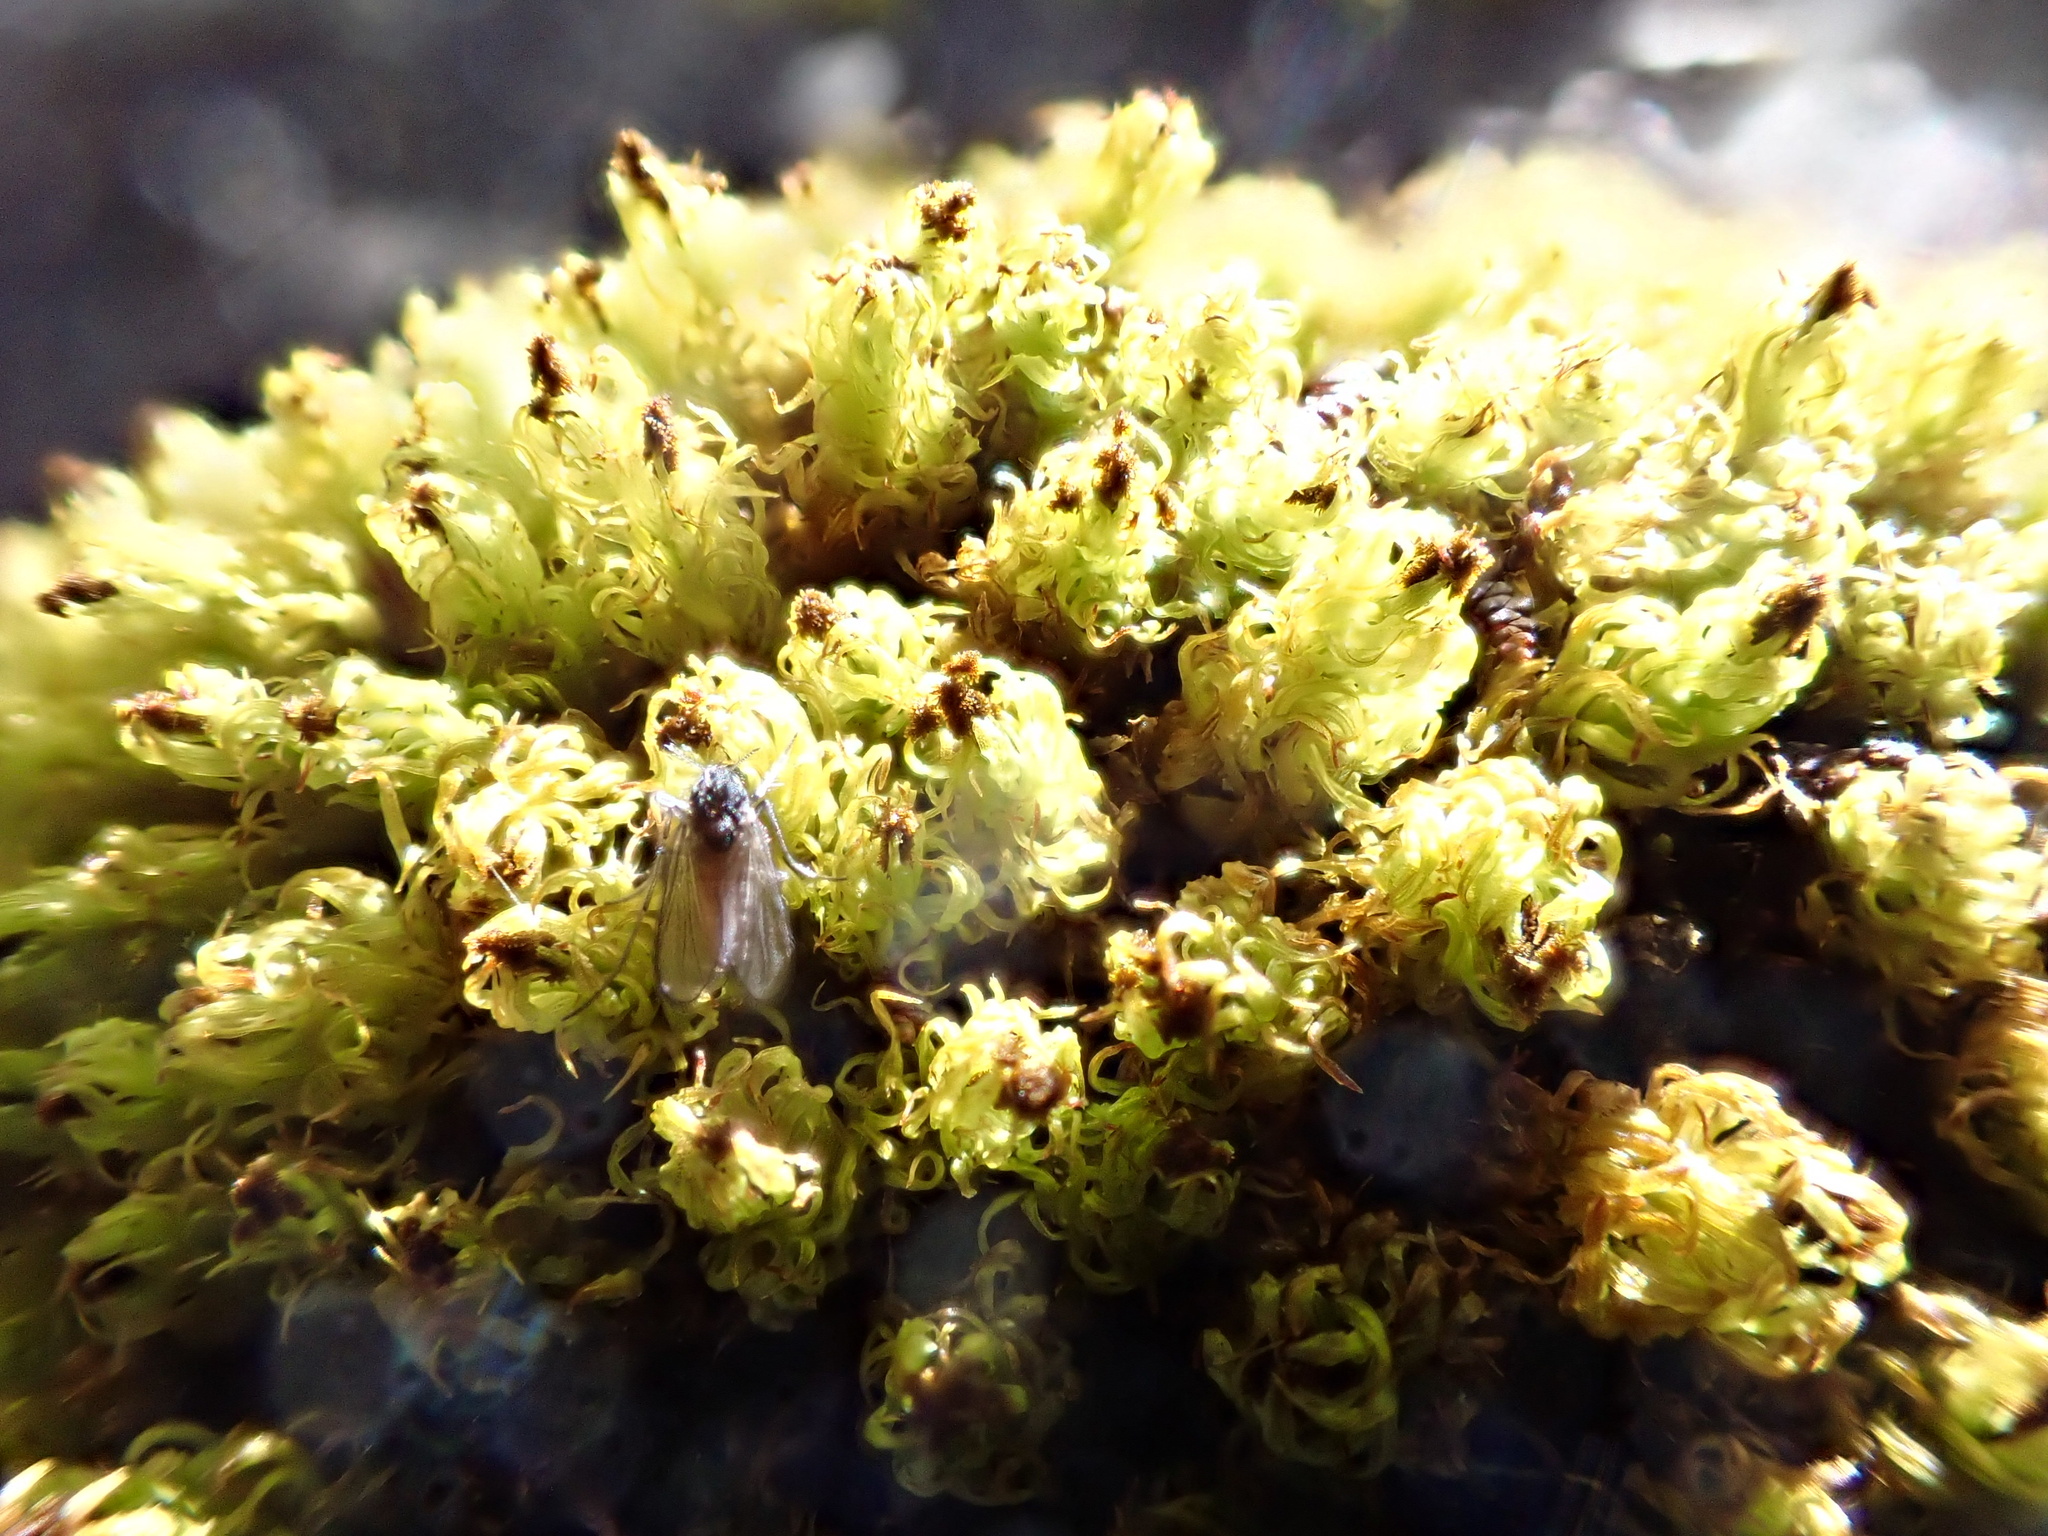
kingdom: Plantae
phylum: Bryophyta
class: Bryopsida
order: Orthotrichales
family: Orthotrichaceae
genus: Plenogemma
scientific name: Plenogemma phyllantha
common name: Frizzled pincushion
